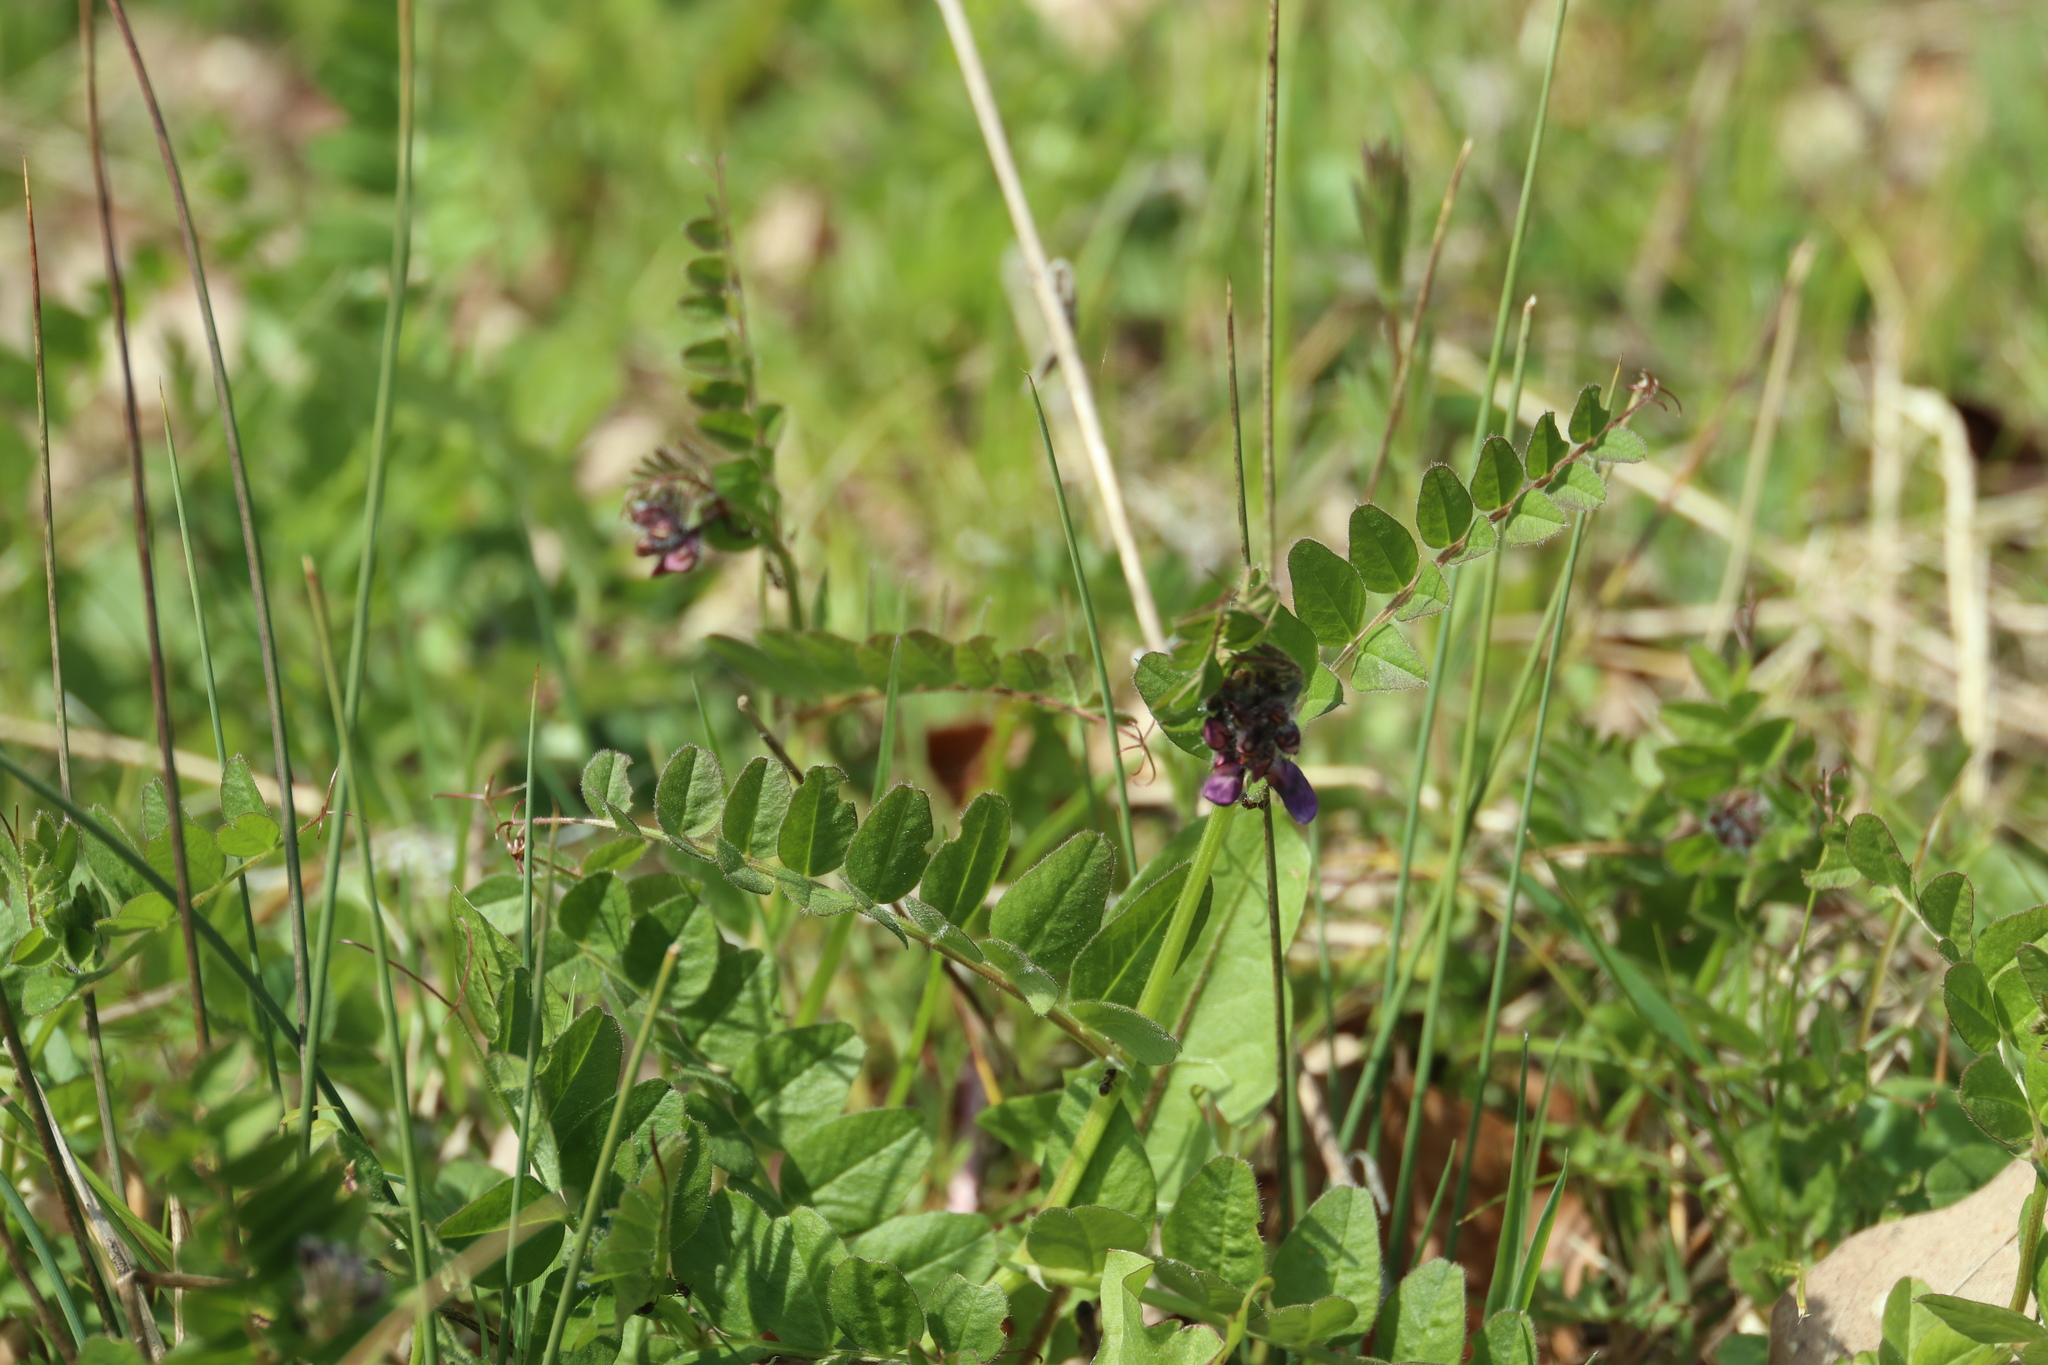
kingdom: Plantae
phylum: Tracheophyta
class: Magnoliopsida
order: Fabales
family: Fabaceae
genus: Vicia
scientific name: Vicia sepium
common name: Bush vetch
